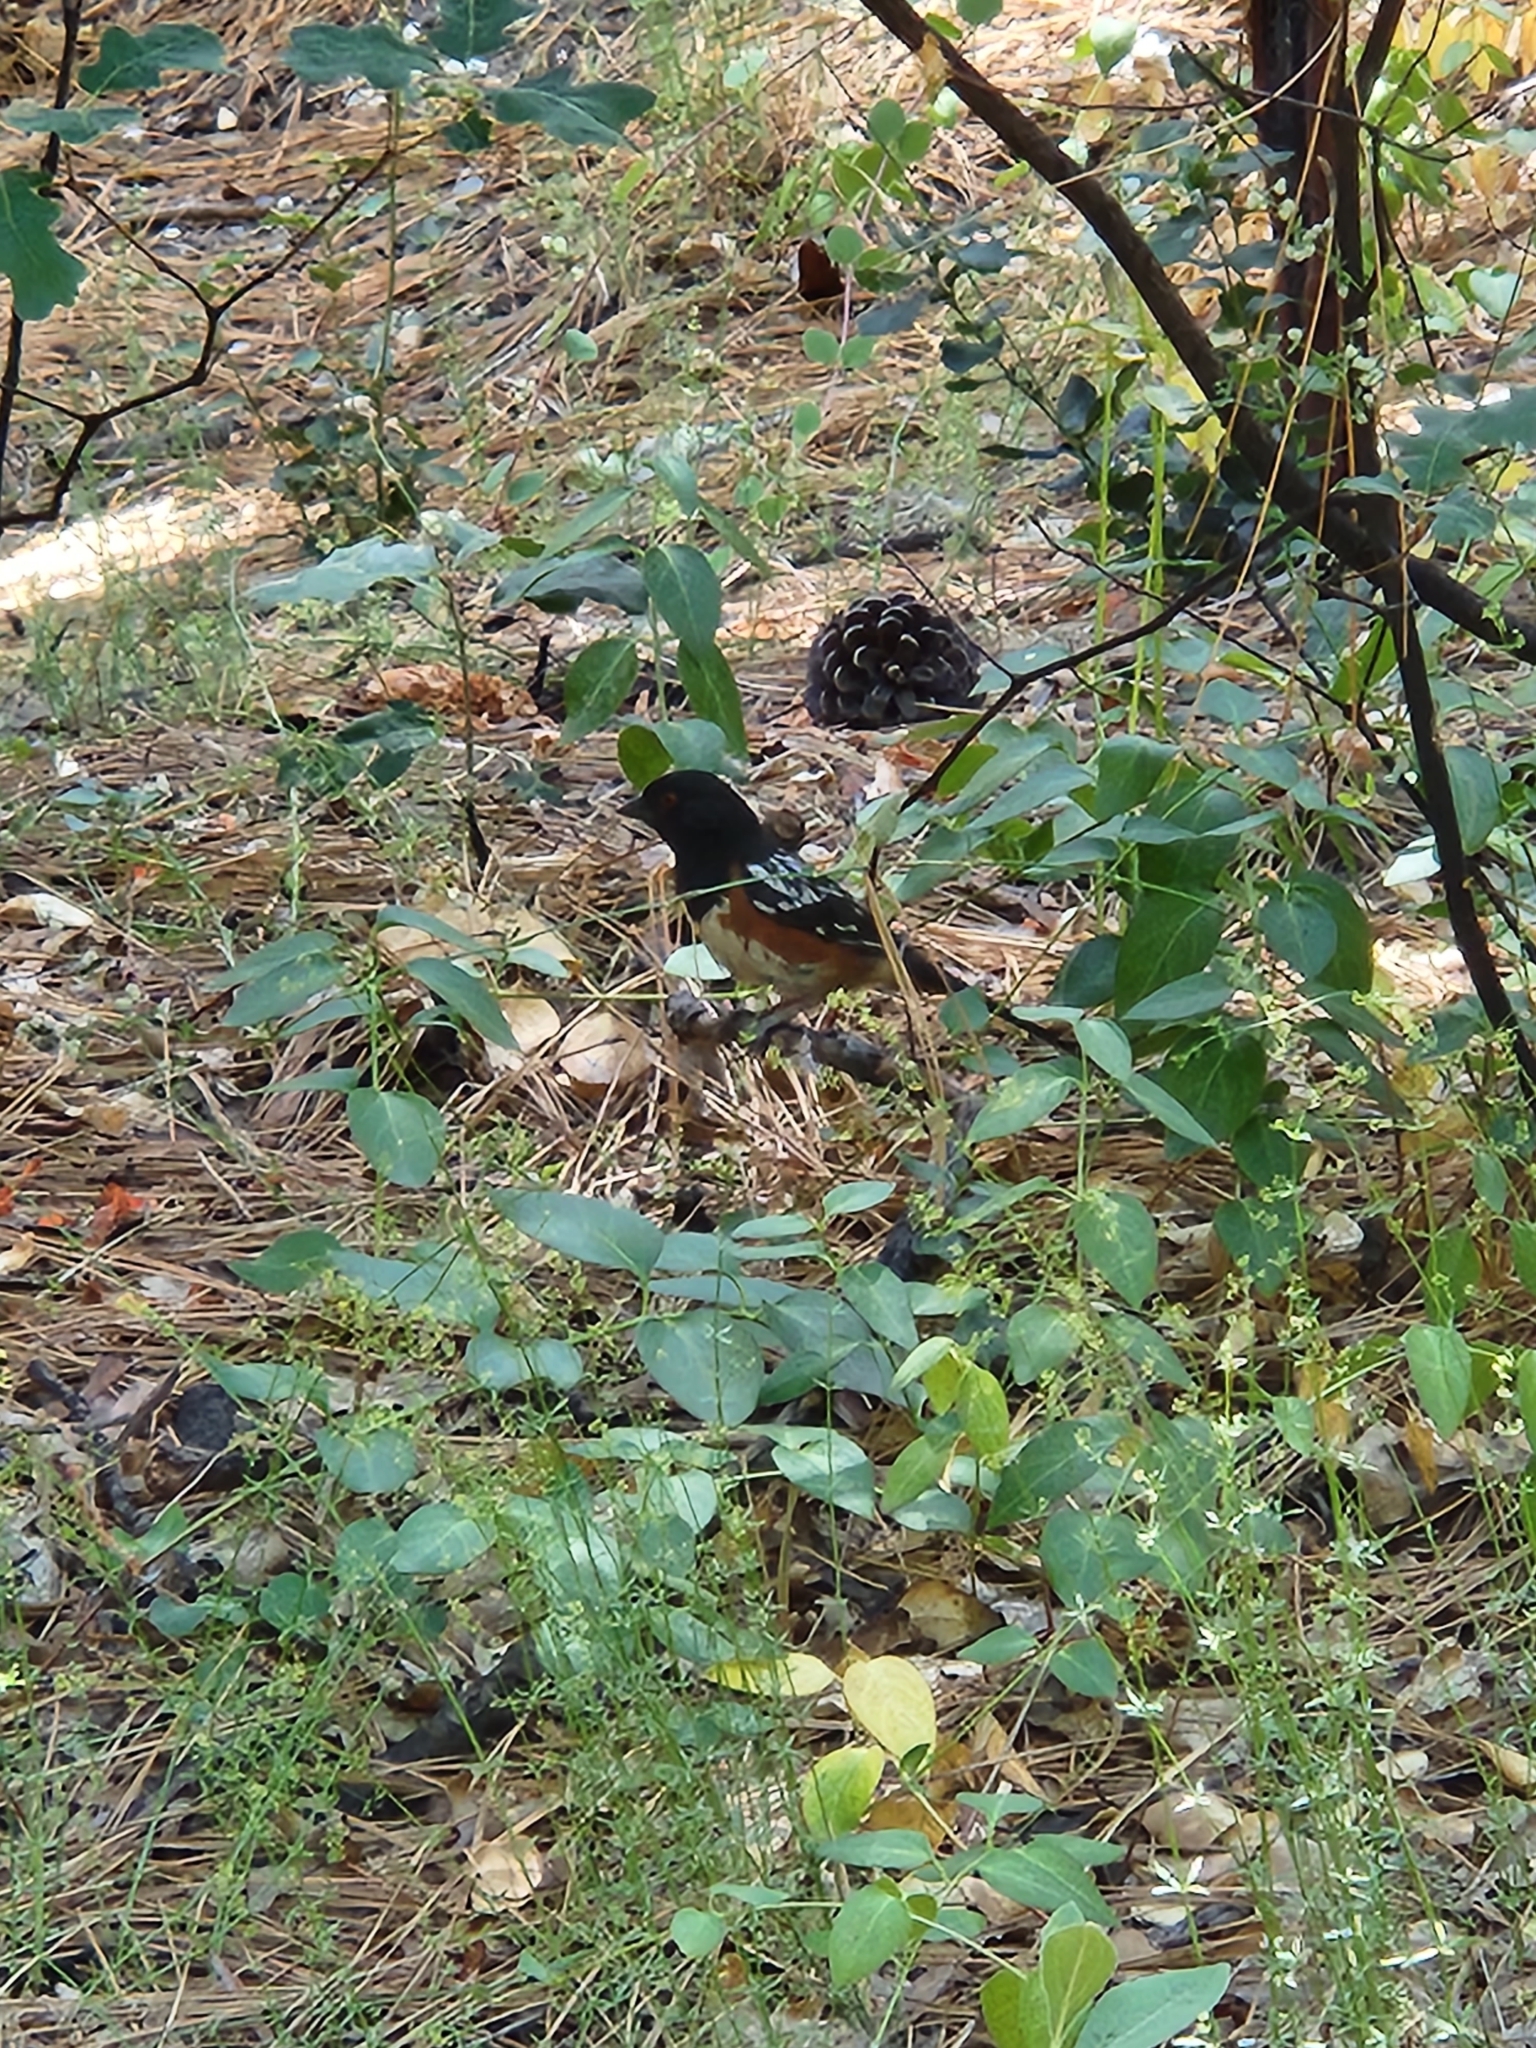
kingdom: Animalia
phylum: Chordata
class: Aves
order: Passeriformes
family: Passerellidae
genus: Pipilo
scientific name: Pipilo maculatus
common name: Spotted towhee
